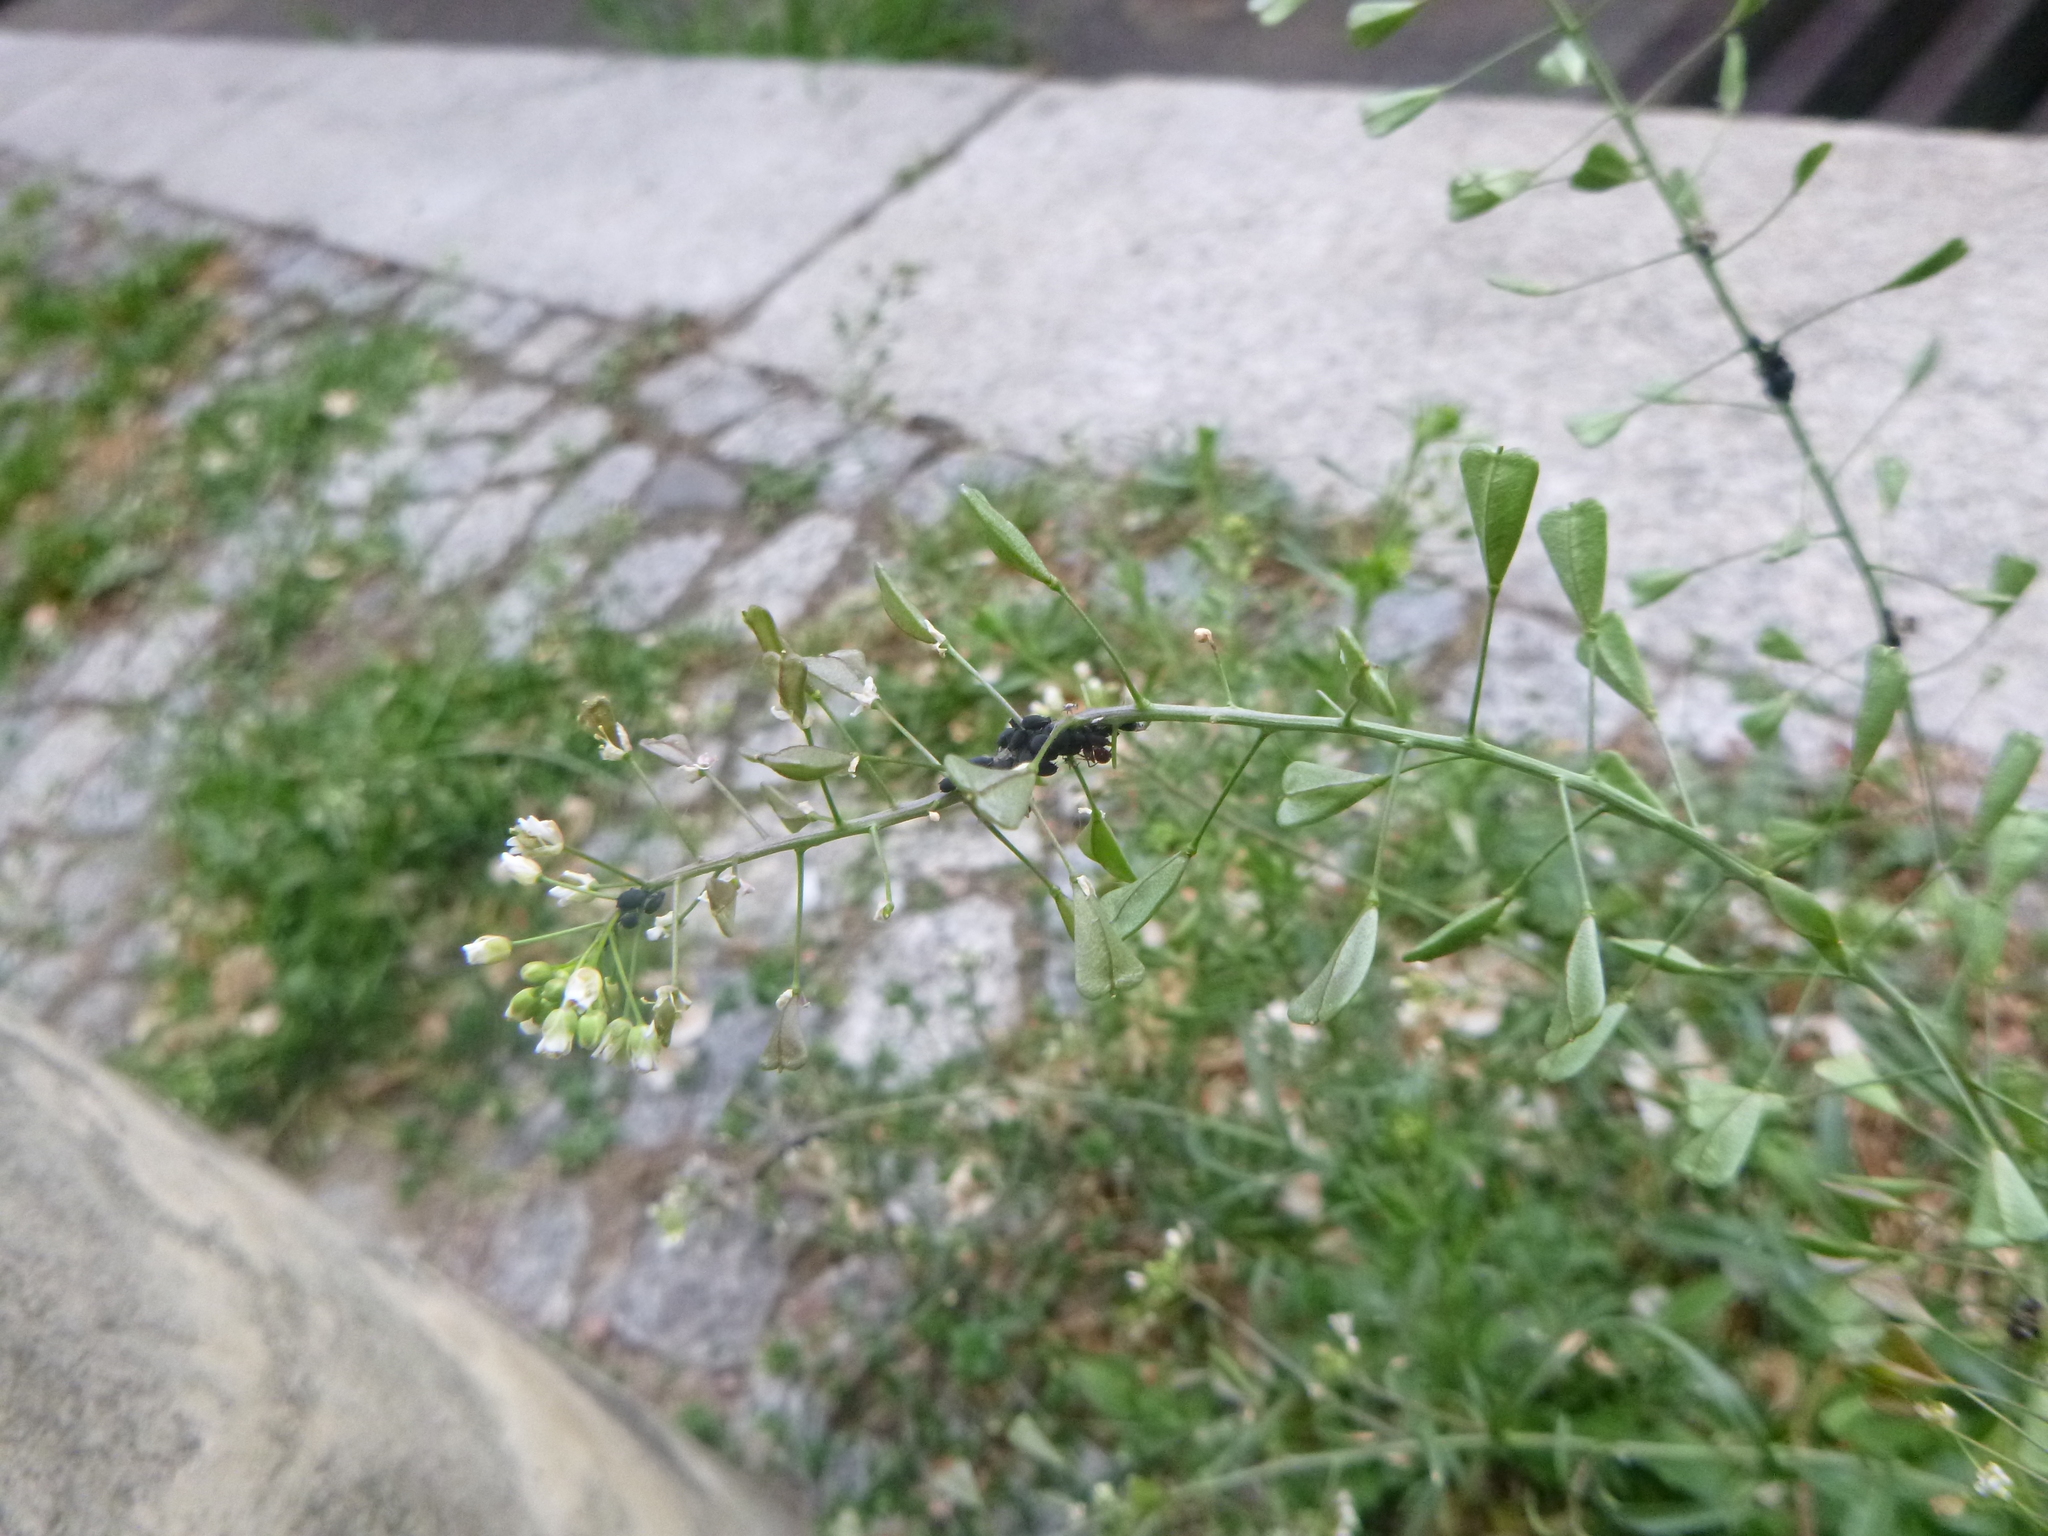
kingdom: Plantae
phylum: Tracheophyta
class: Magnoliopsida
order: Brassicales
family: Brassicaceae
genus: Capsella
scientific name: Capsella bursa-pastoris
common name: Shepherd's purse
